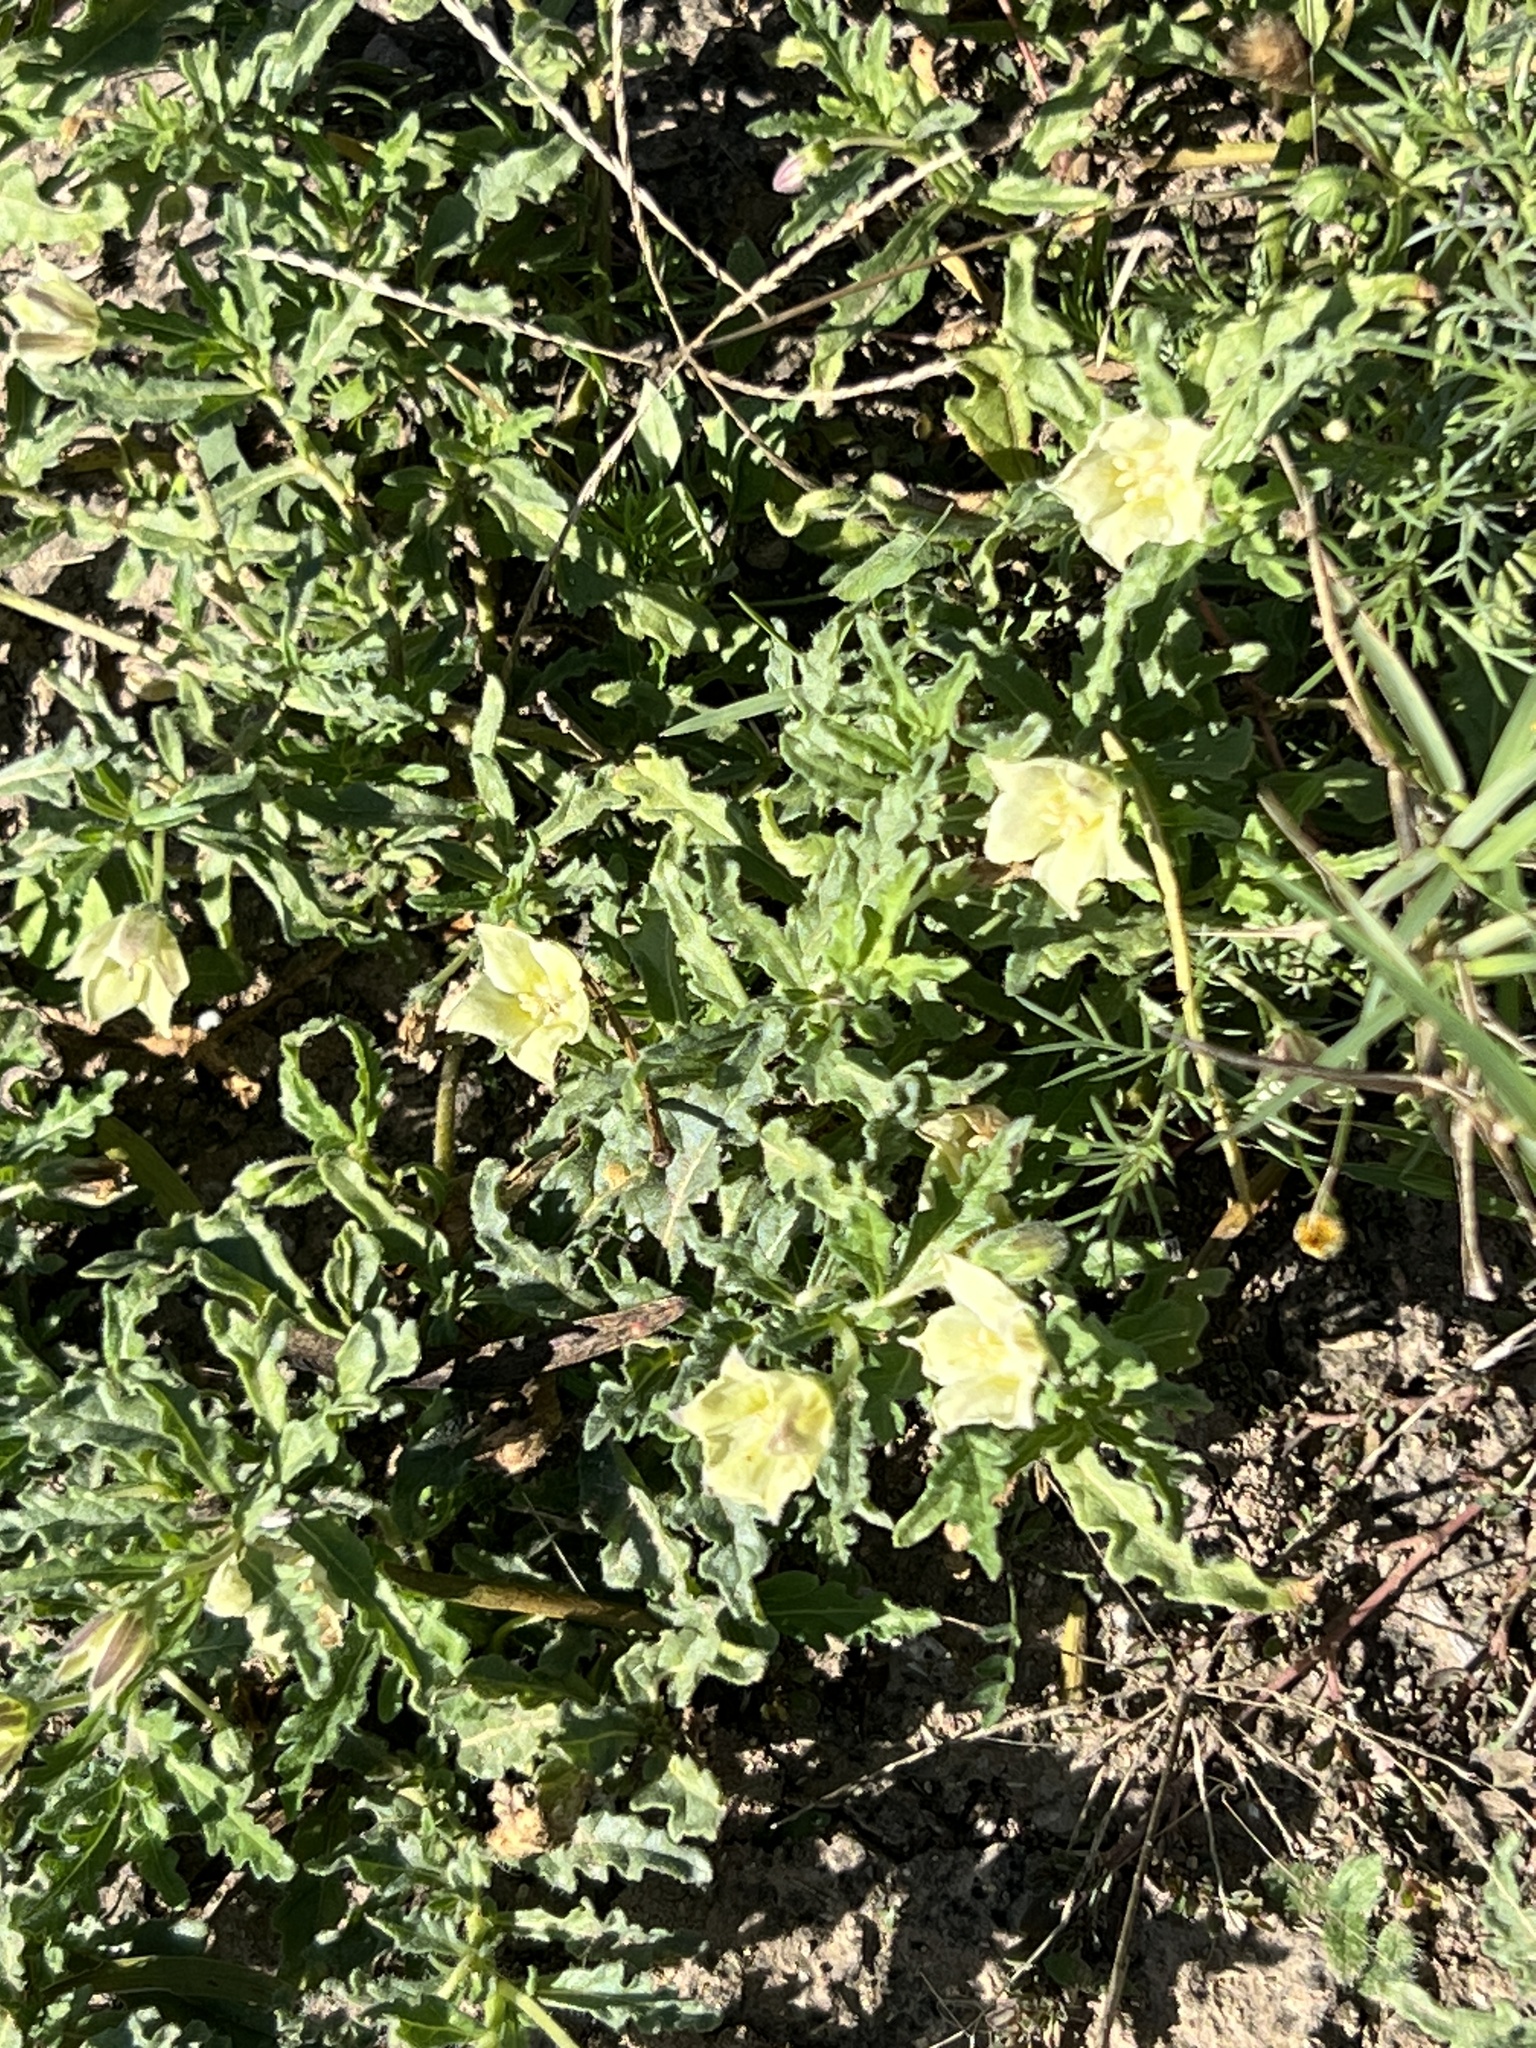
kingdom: Plantae
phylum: Tracheophyta
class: Magnoliopsida
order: Solanales
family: Solanaceae
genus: Chamaesaracha
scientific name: Chamaesaracha edwardsiana
